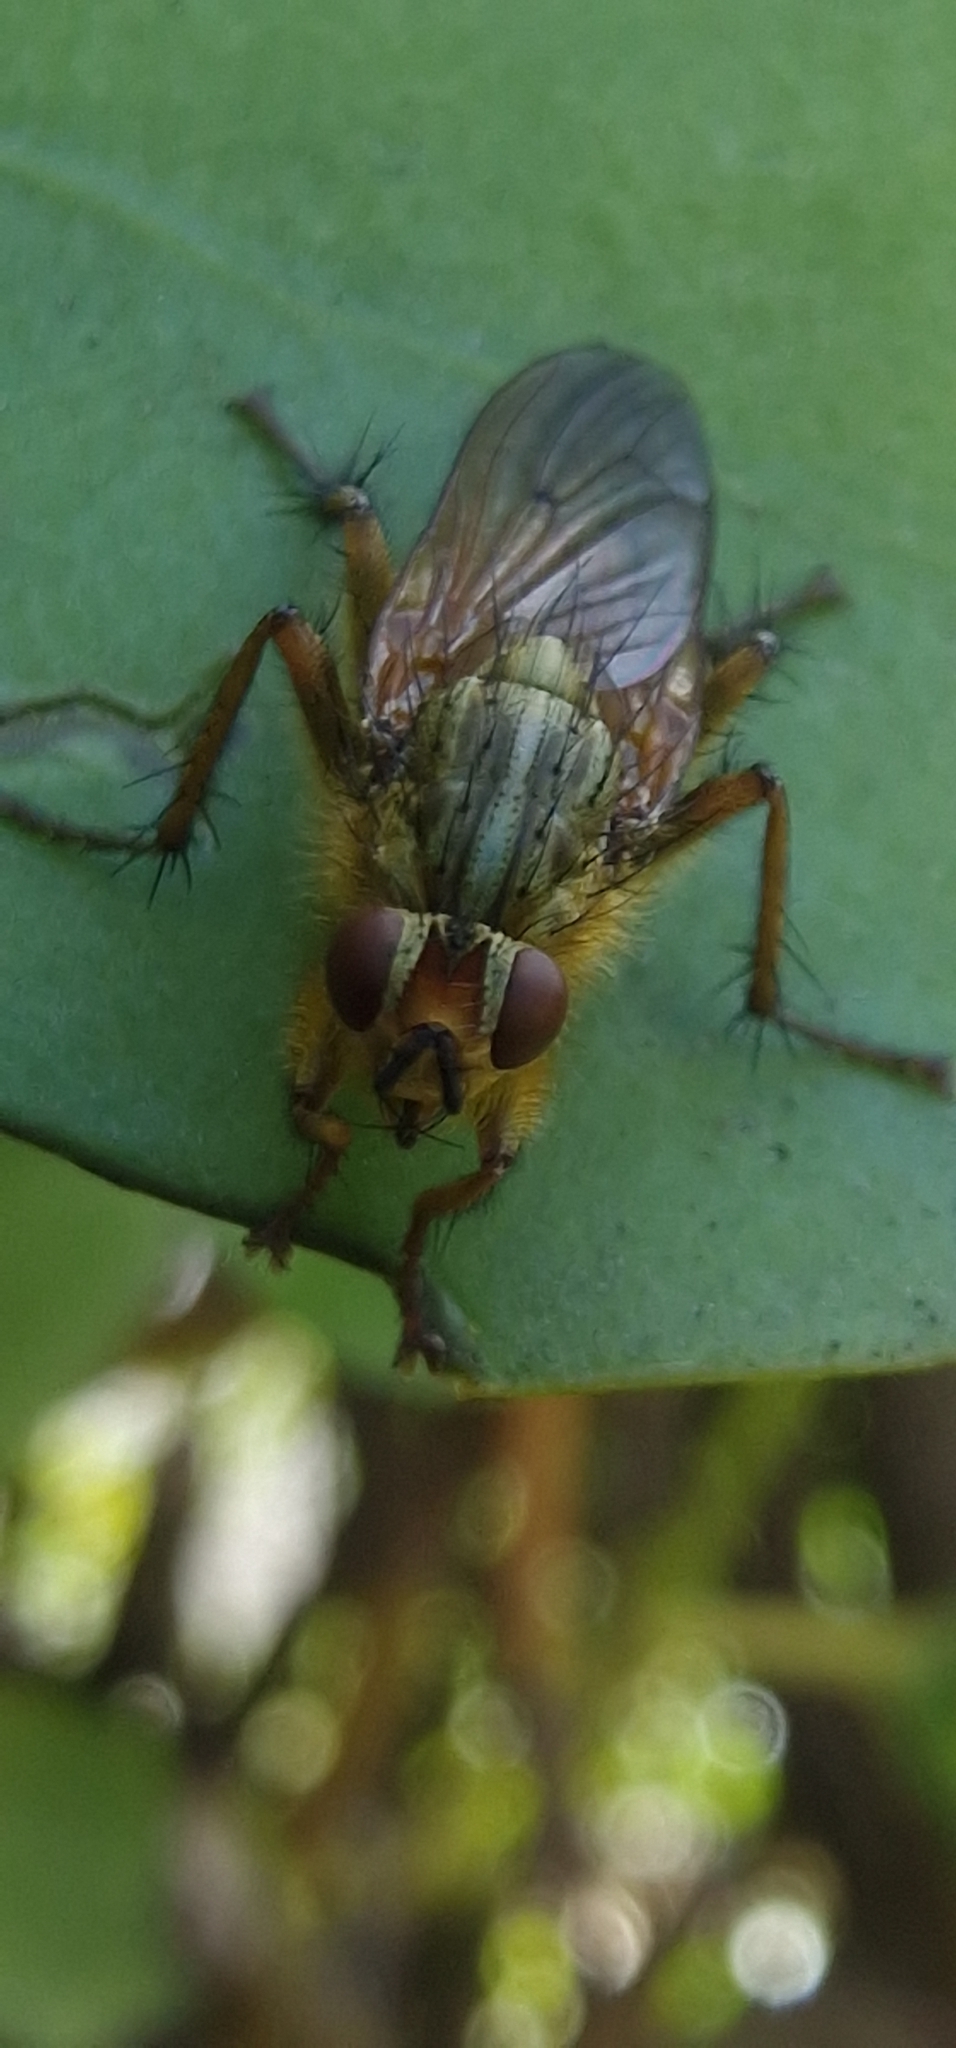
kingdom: Animalia
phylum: Arthropoda
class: Insecta
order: Diptera
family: Scathophagidae
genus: Scathophaga
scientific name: Scathophaga stercoraria
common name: Yellow dung fly
